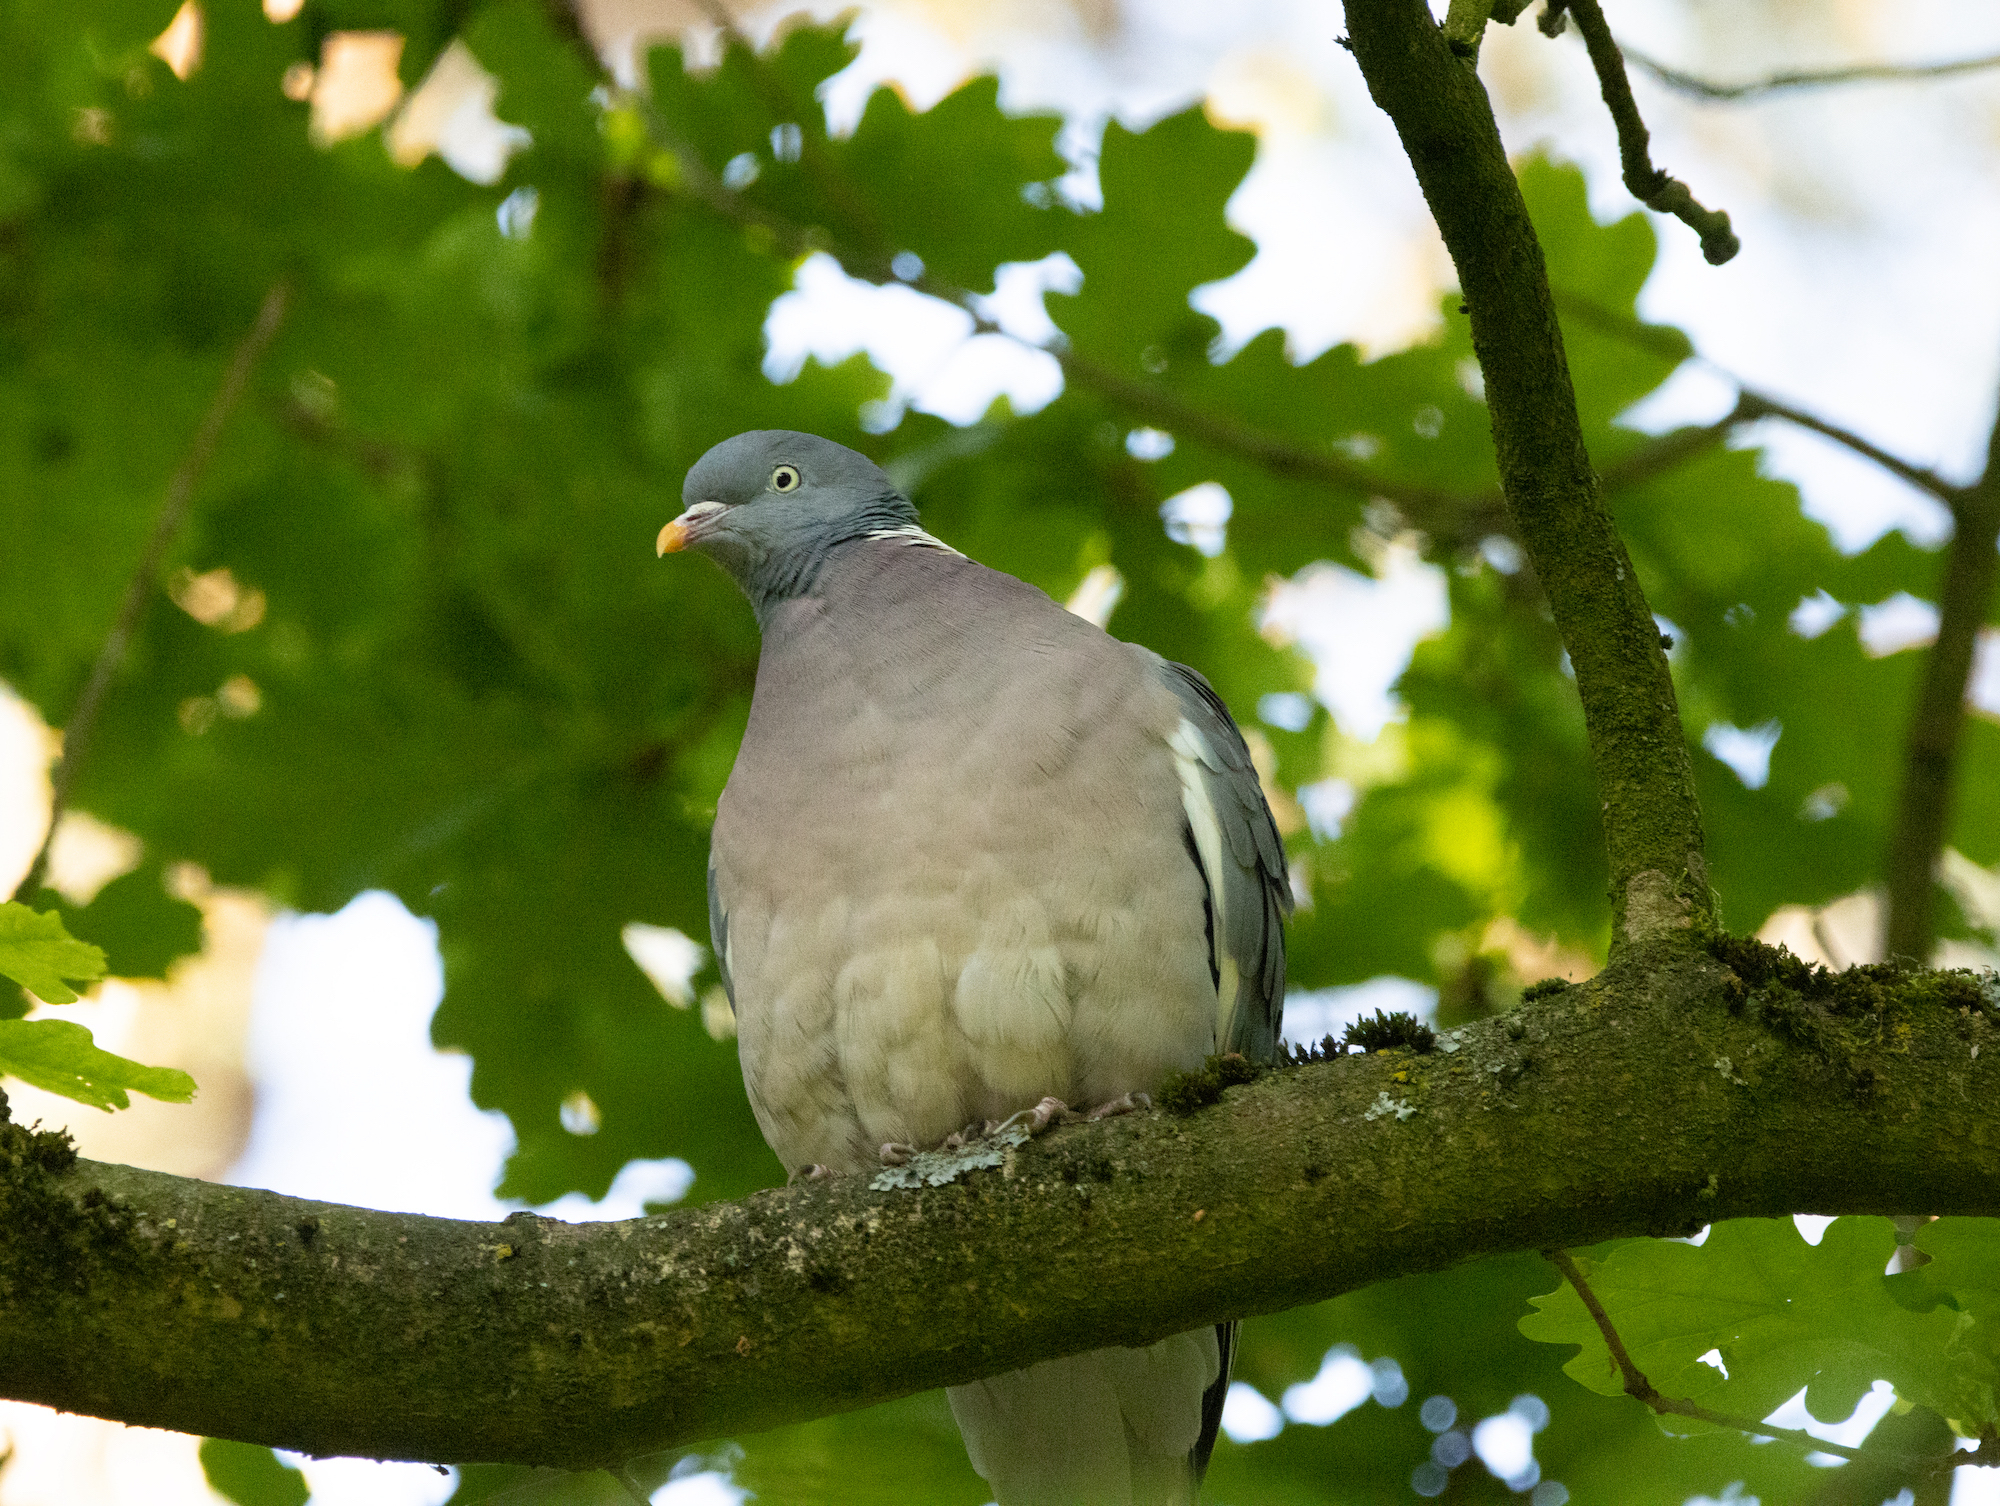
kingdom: Animalia
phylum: Chordata
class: Aves
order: Columbiformes
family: Columbidae
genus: Columba
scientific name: Columba palumbus
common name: Common wood pigeon
